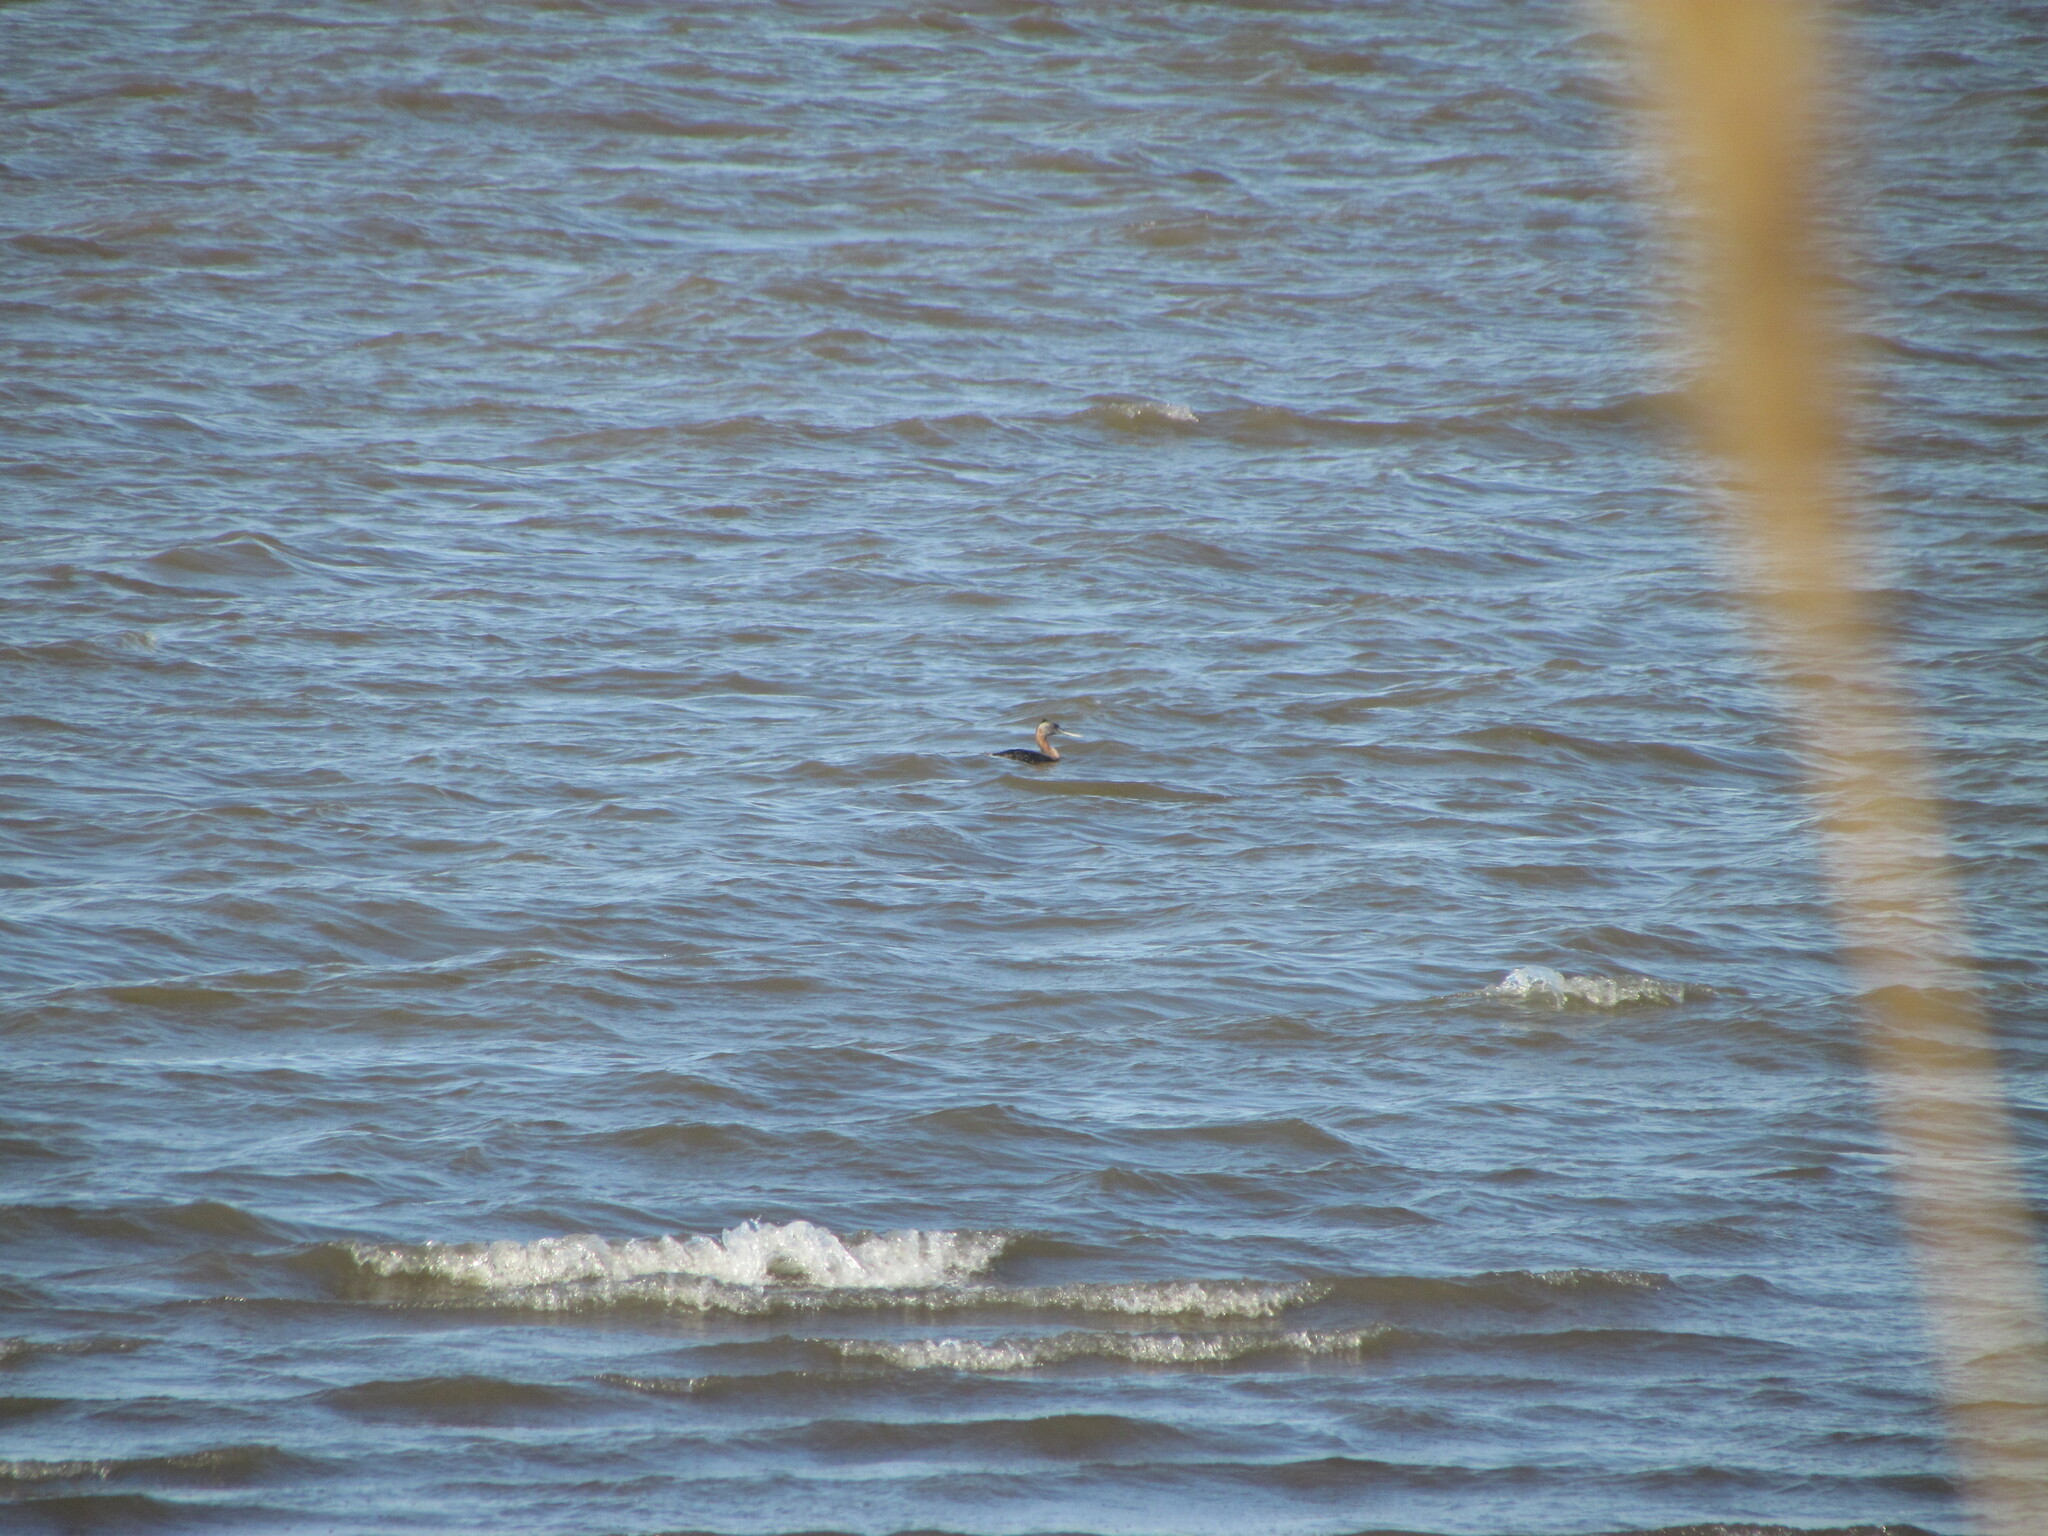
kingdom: Animalia
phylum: Chordata
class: Aves
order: Podicipediformes
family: Podicipedidae
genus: Podiceps
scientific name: Podiceps major
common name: Great grebe
